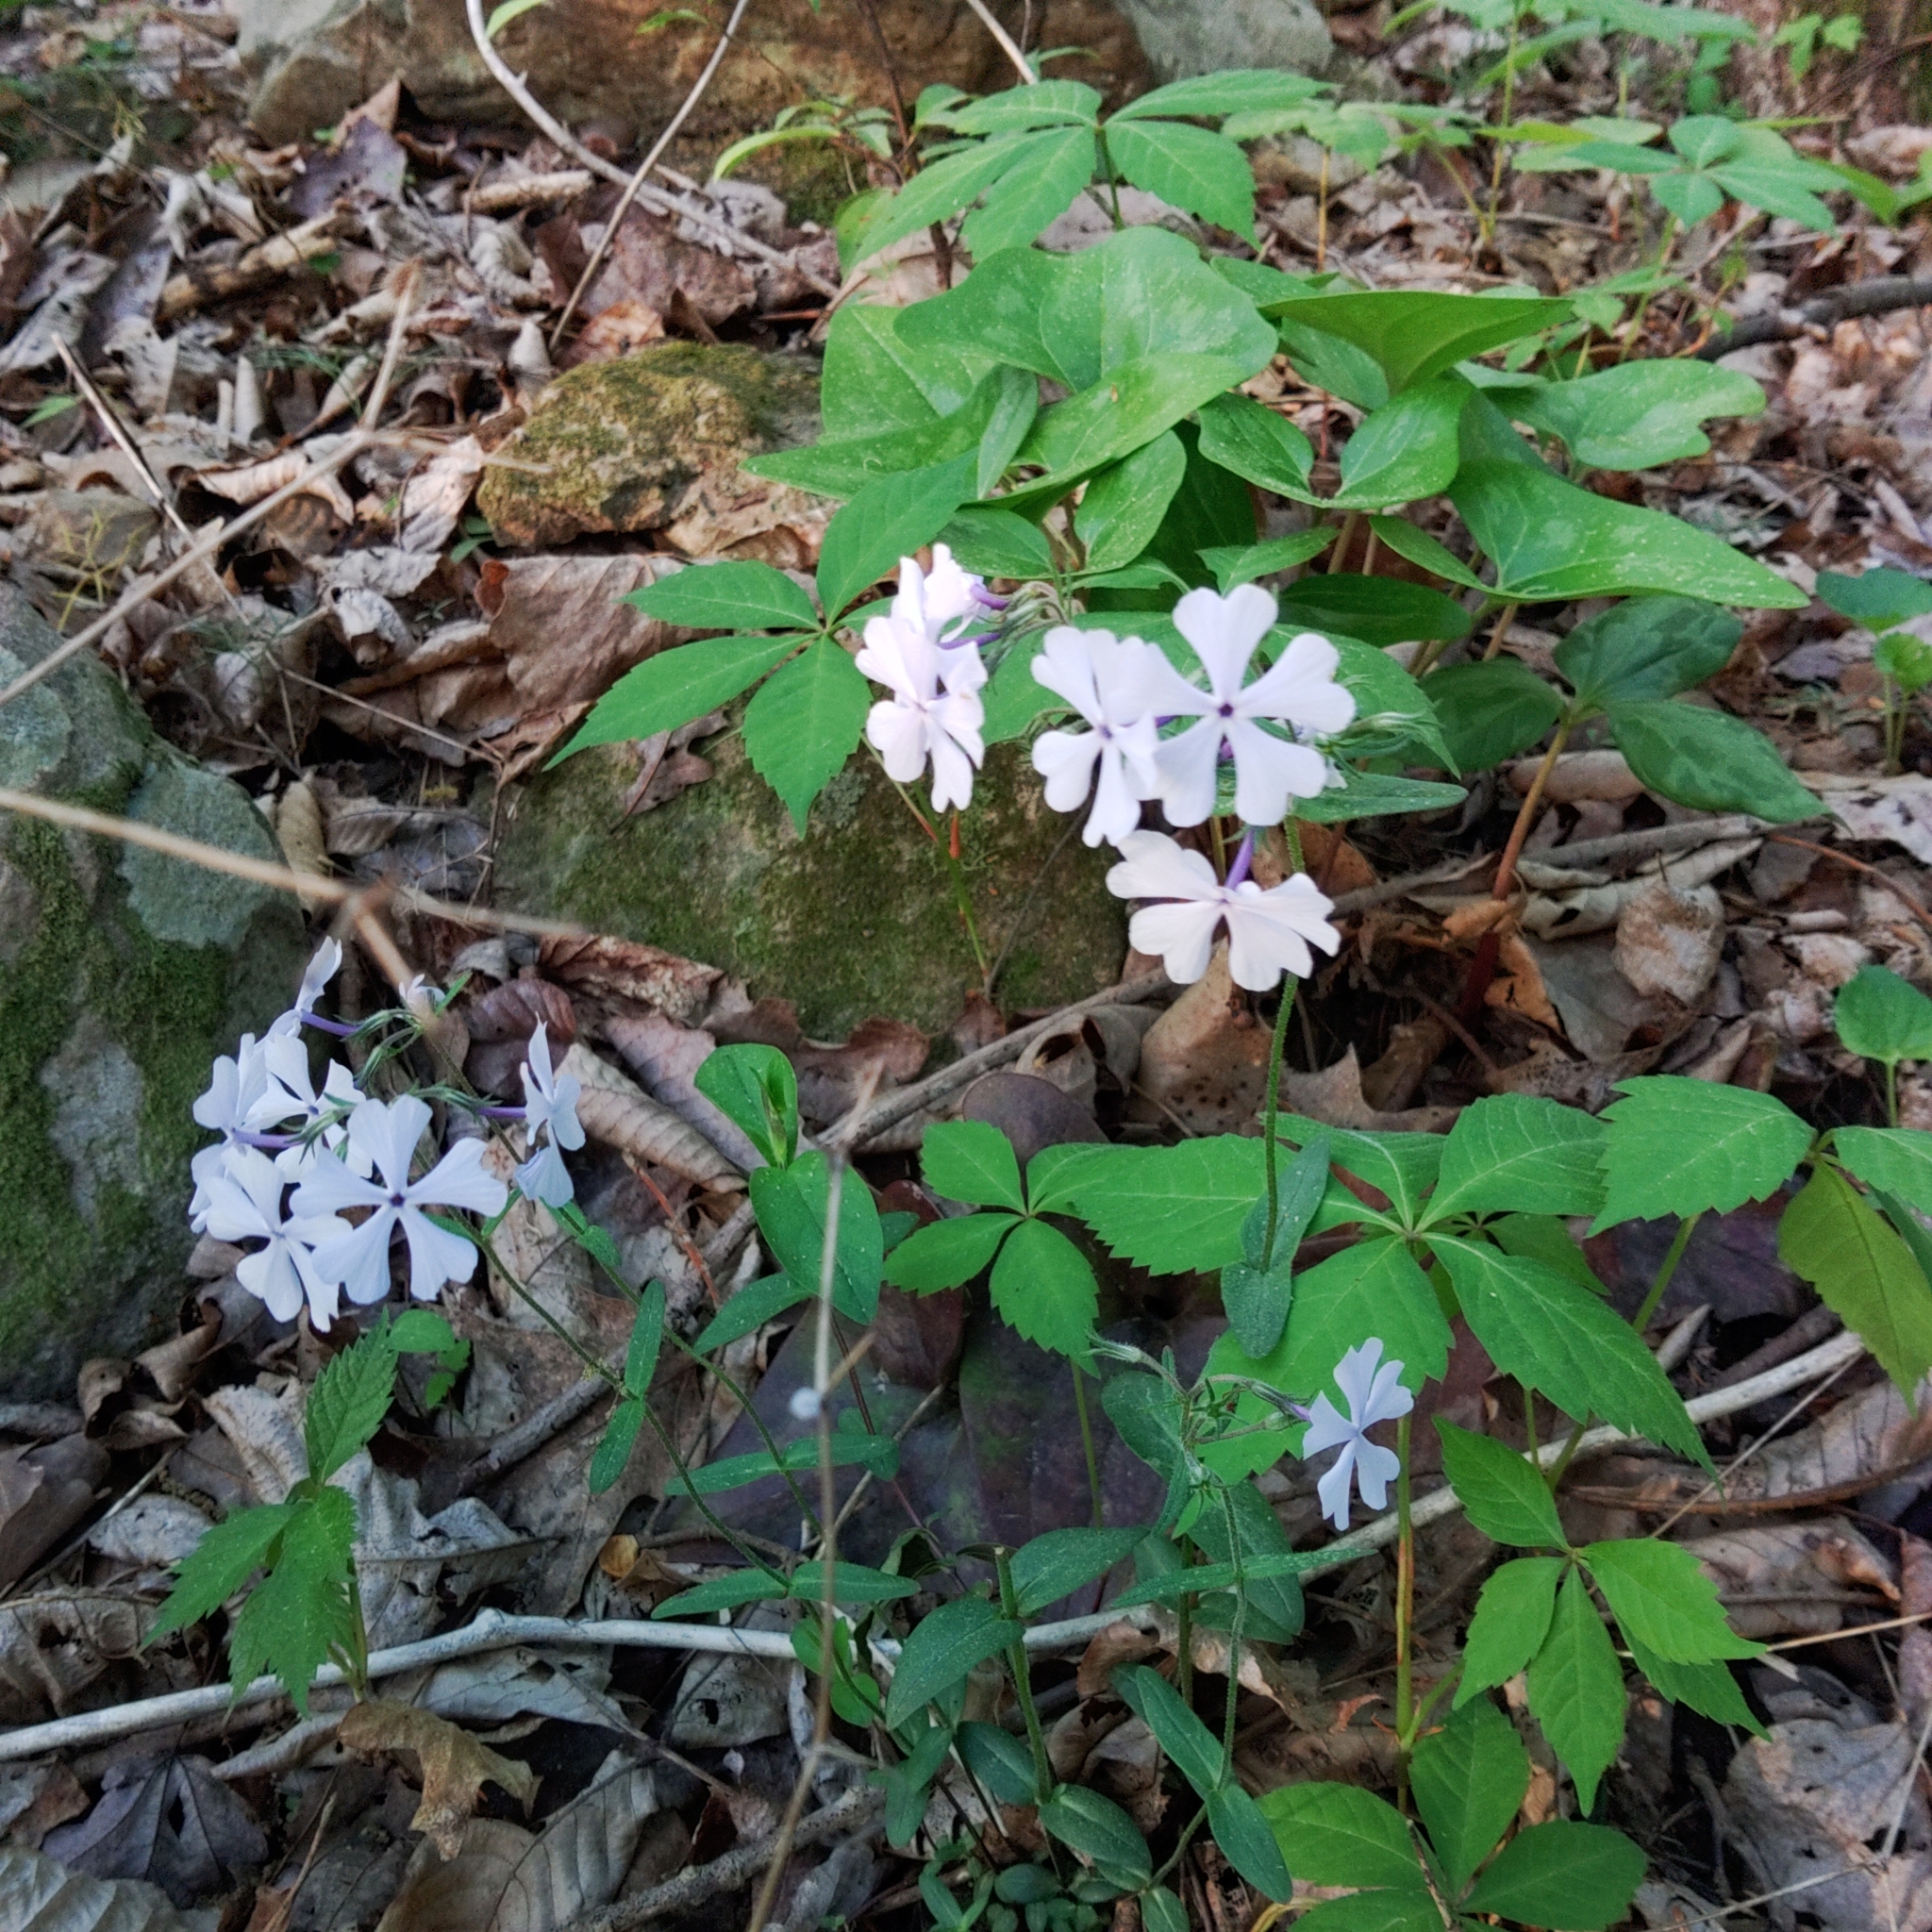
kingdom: Plantae
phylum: Tracheophyta
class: Magnoliopsida
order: Ericales
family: Polemoniaceae
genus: Phlox
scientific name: Phlox divaricata
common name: Blue phlox
